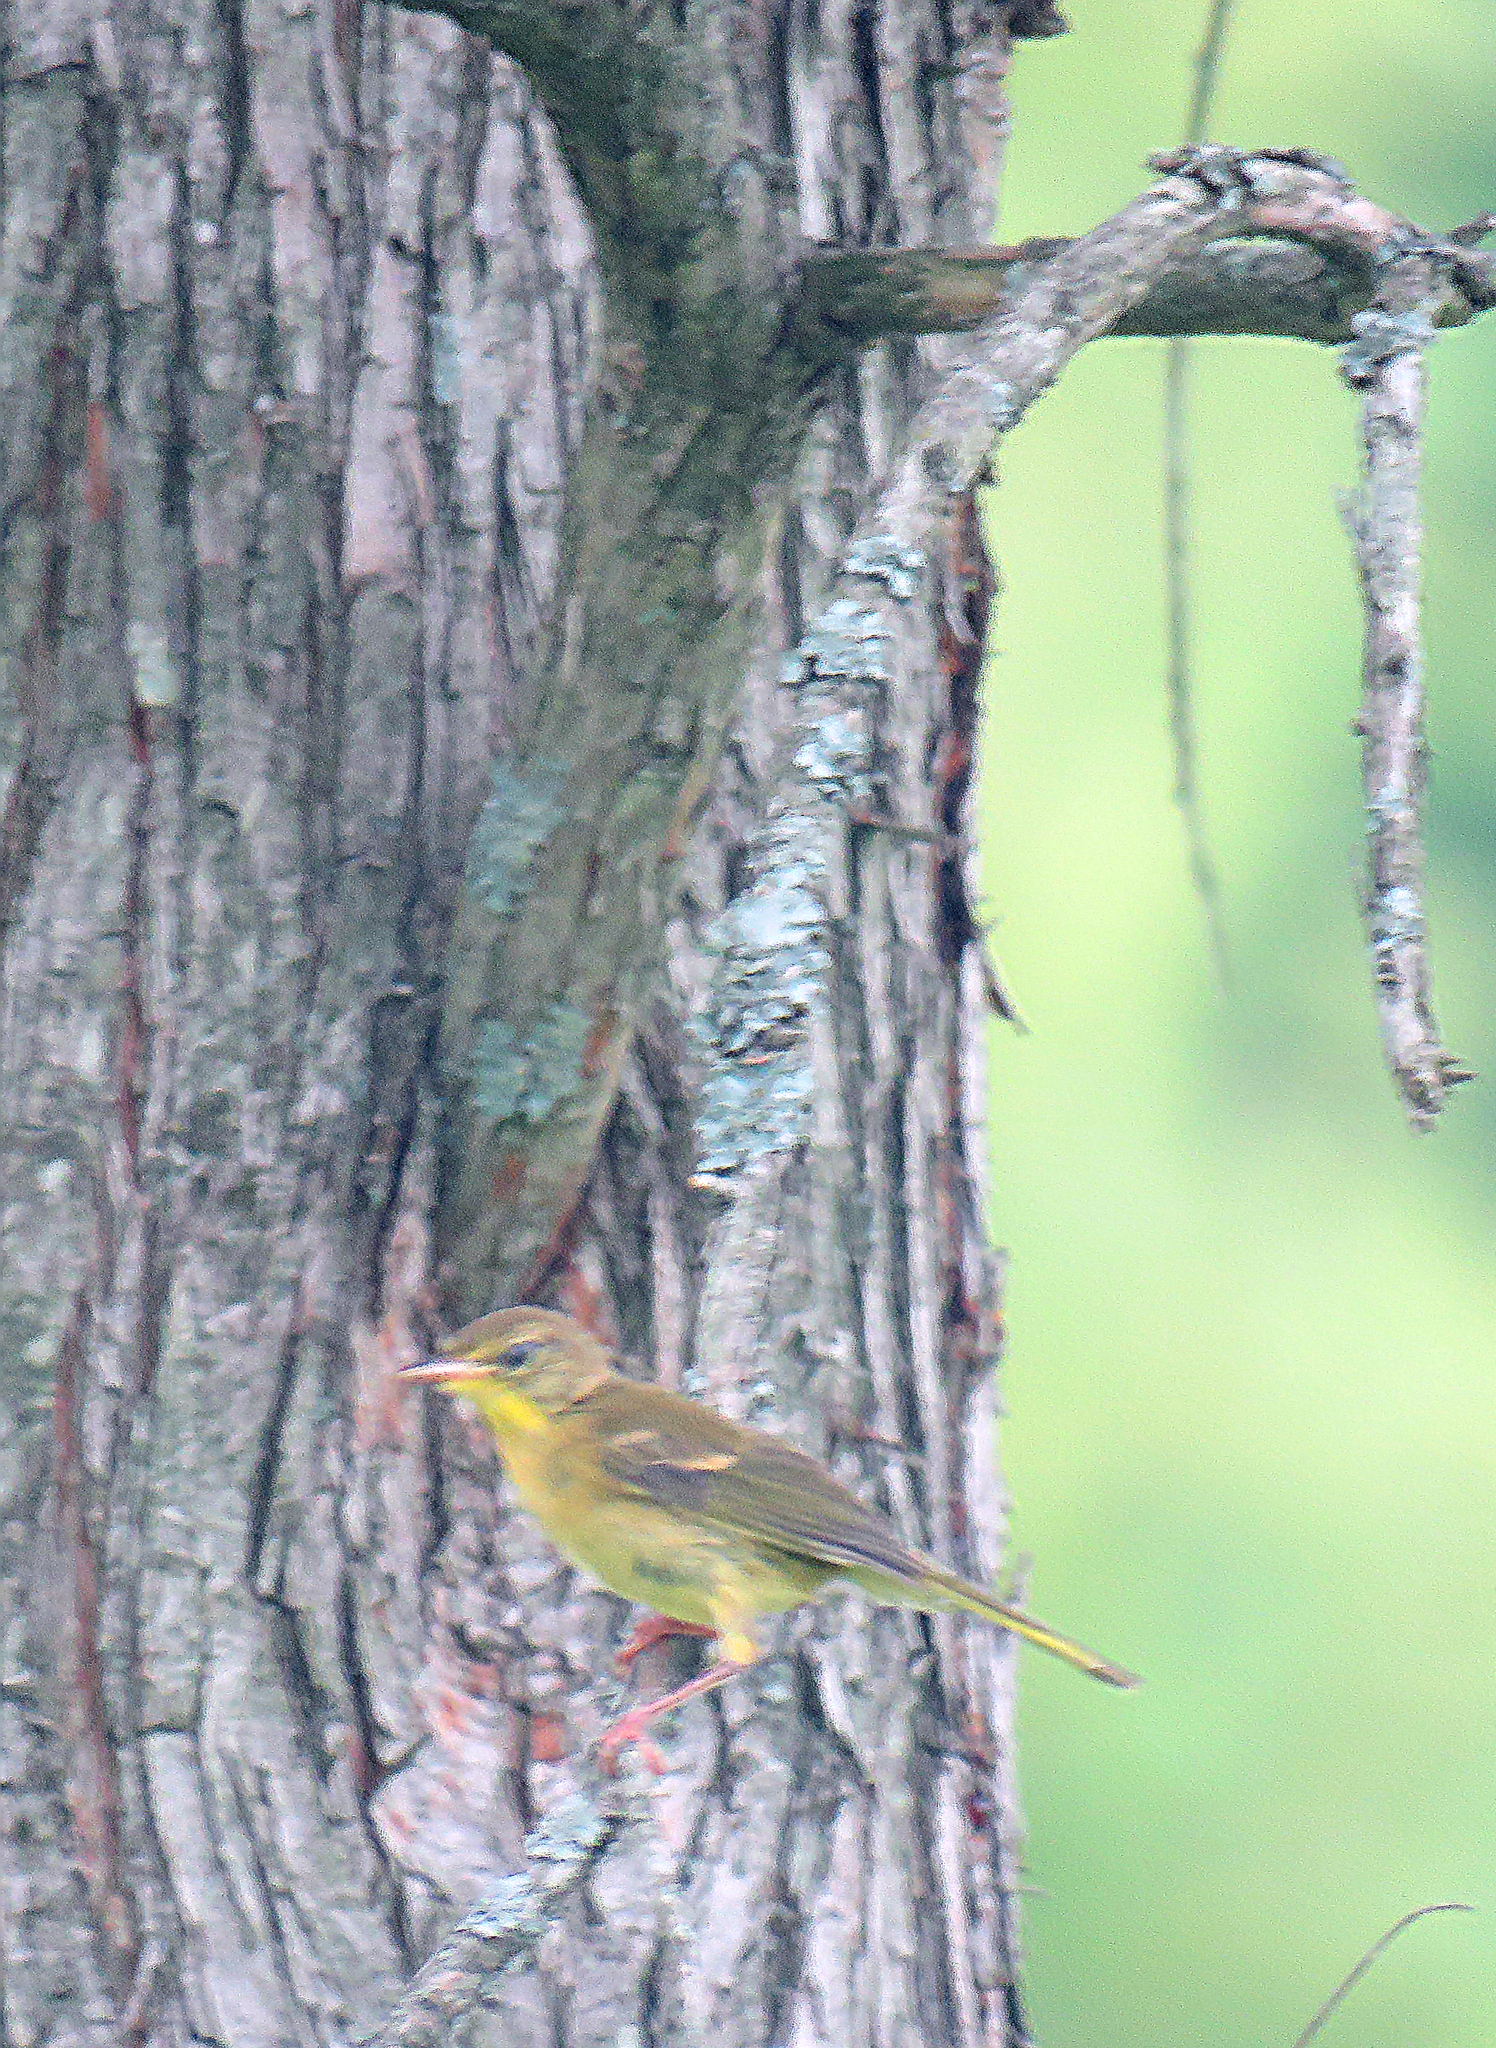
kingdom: Animalia
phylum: Chordata
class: Aves
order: Passeriformes
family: Cardinalidae
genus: Piranga
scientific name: Piranga rubra
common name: Summer tanager
